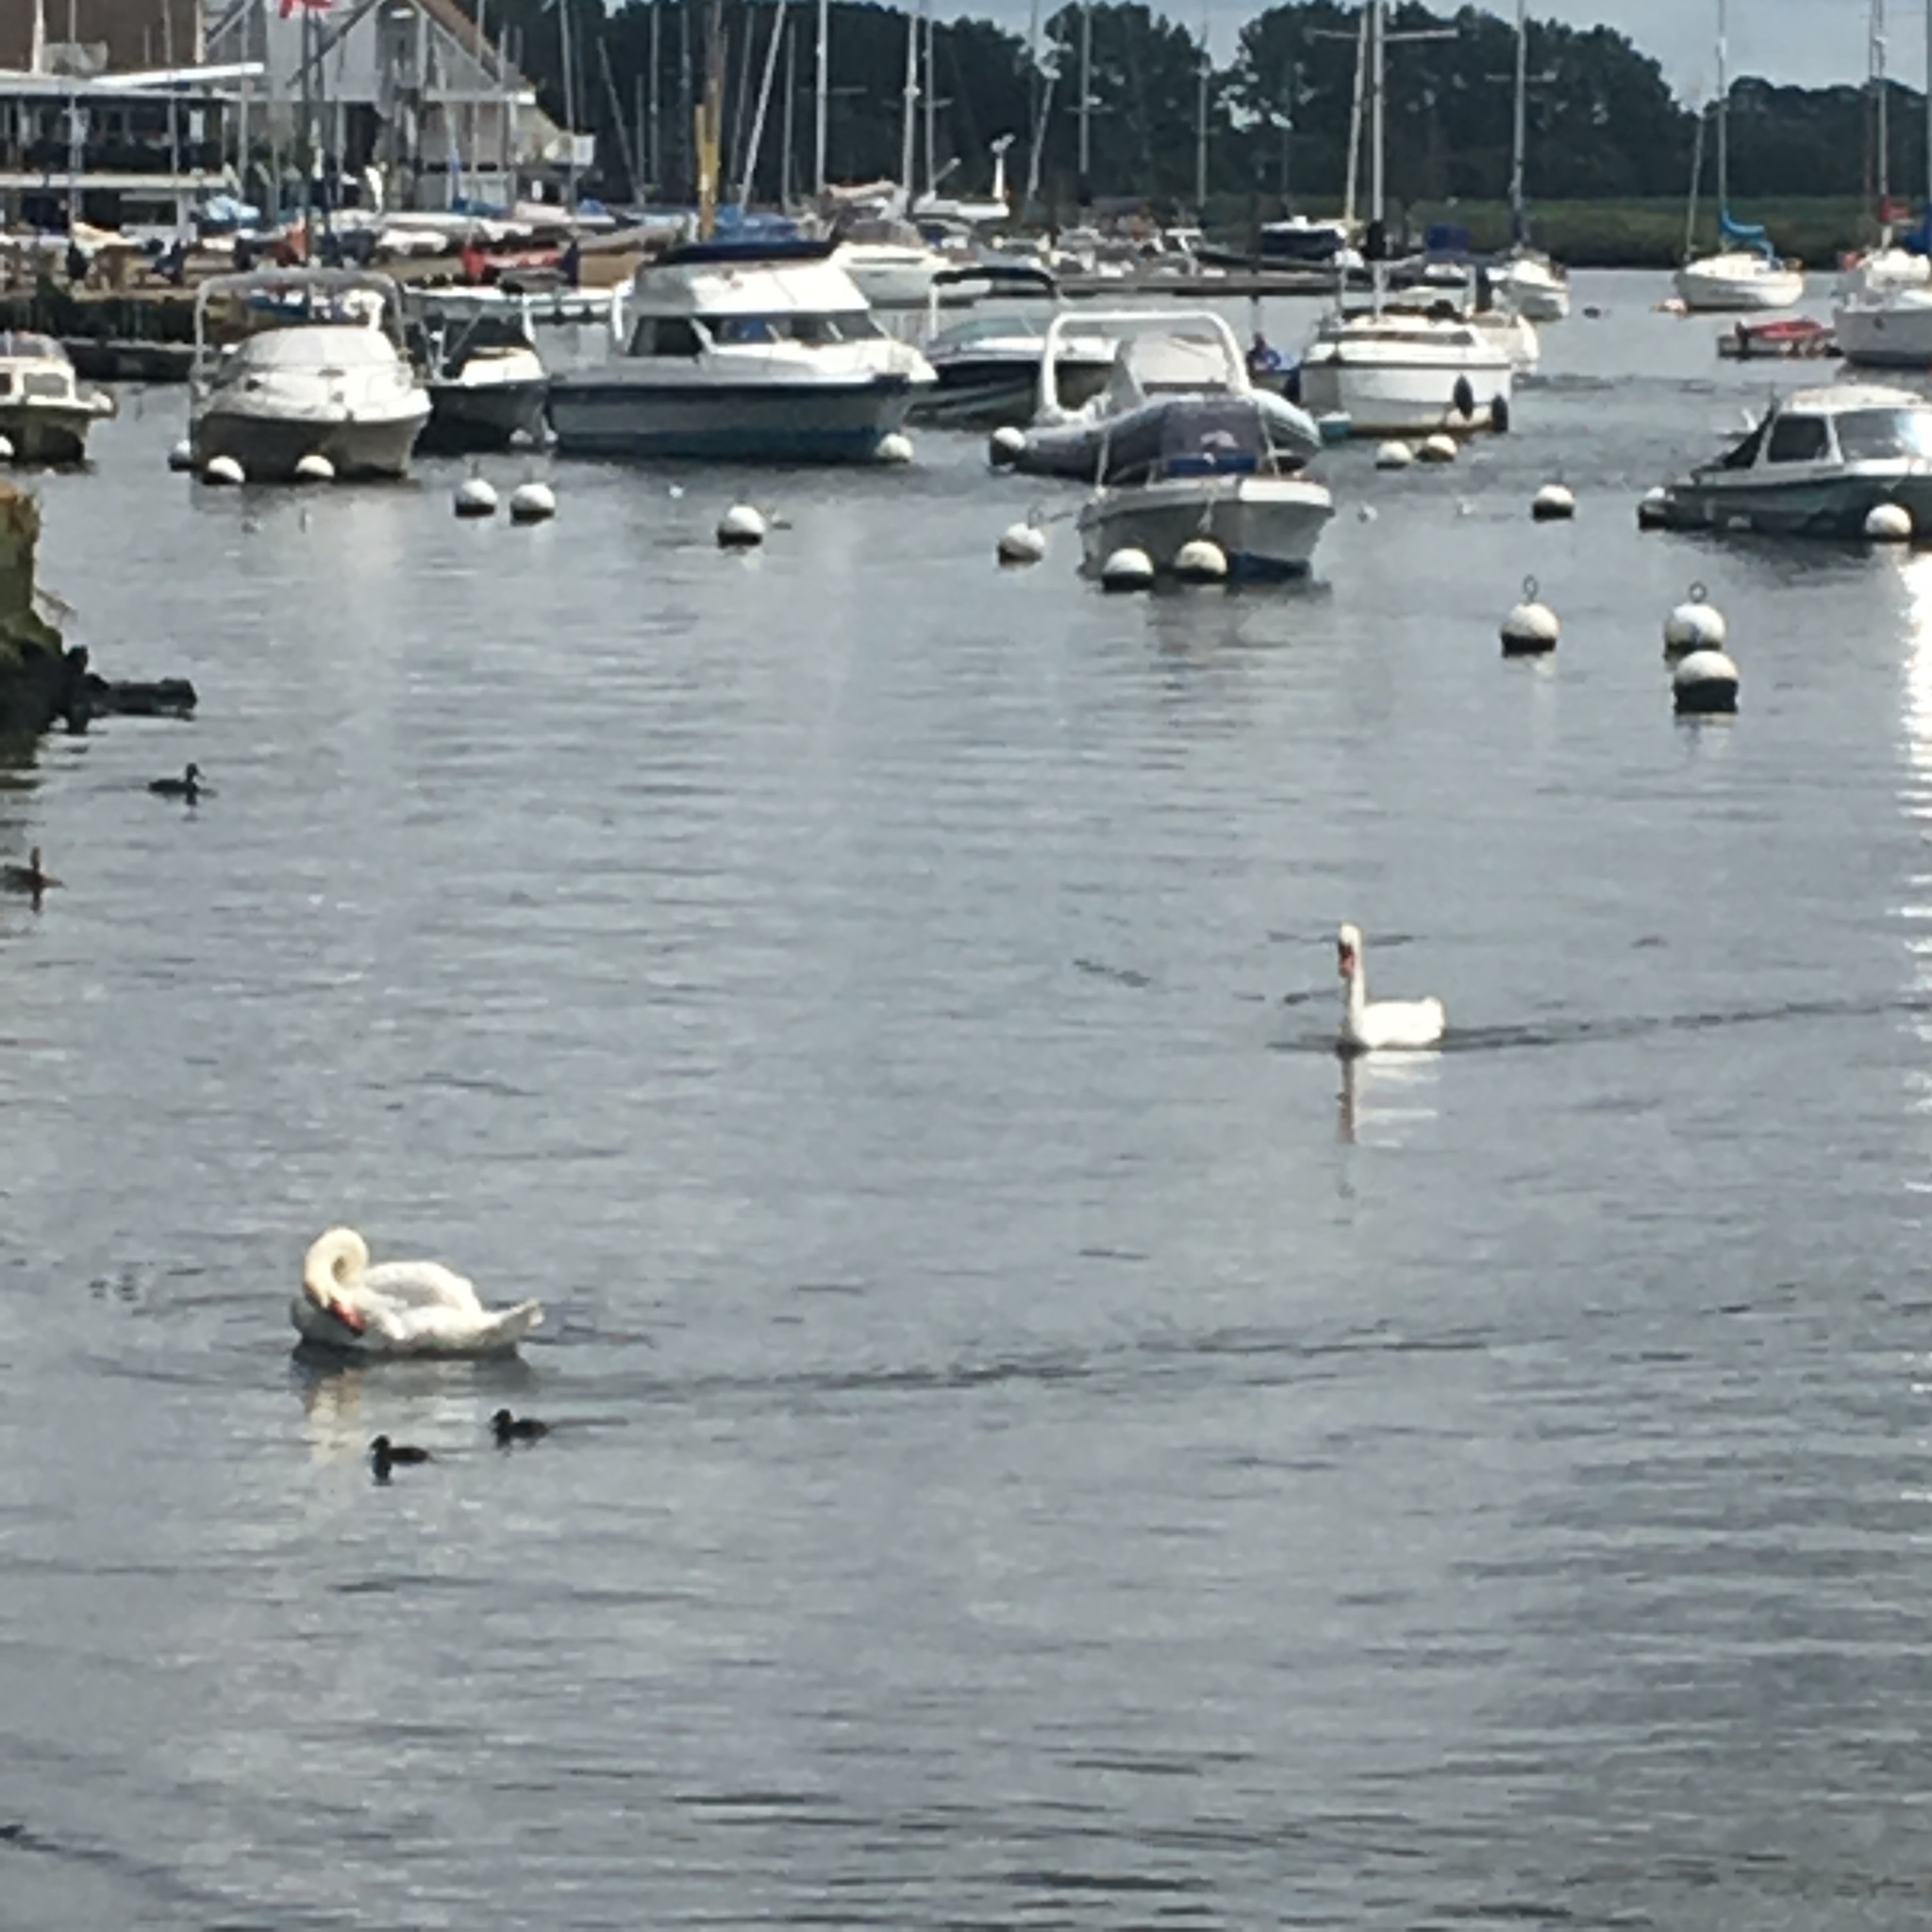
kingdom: Animalia
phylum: Chordata
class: Aves
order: Anseriformes
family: Anatidae
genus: Cygnus
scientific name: Cygnus olor
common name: Mute swan
